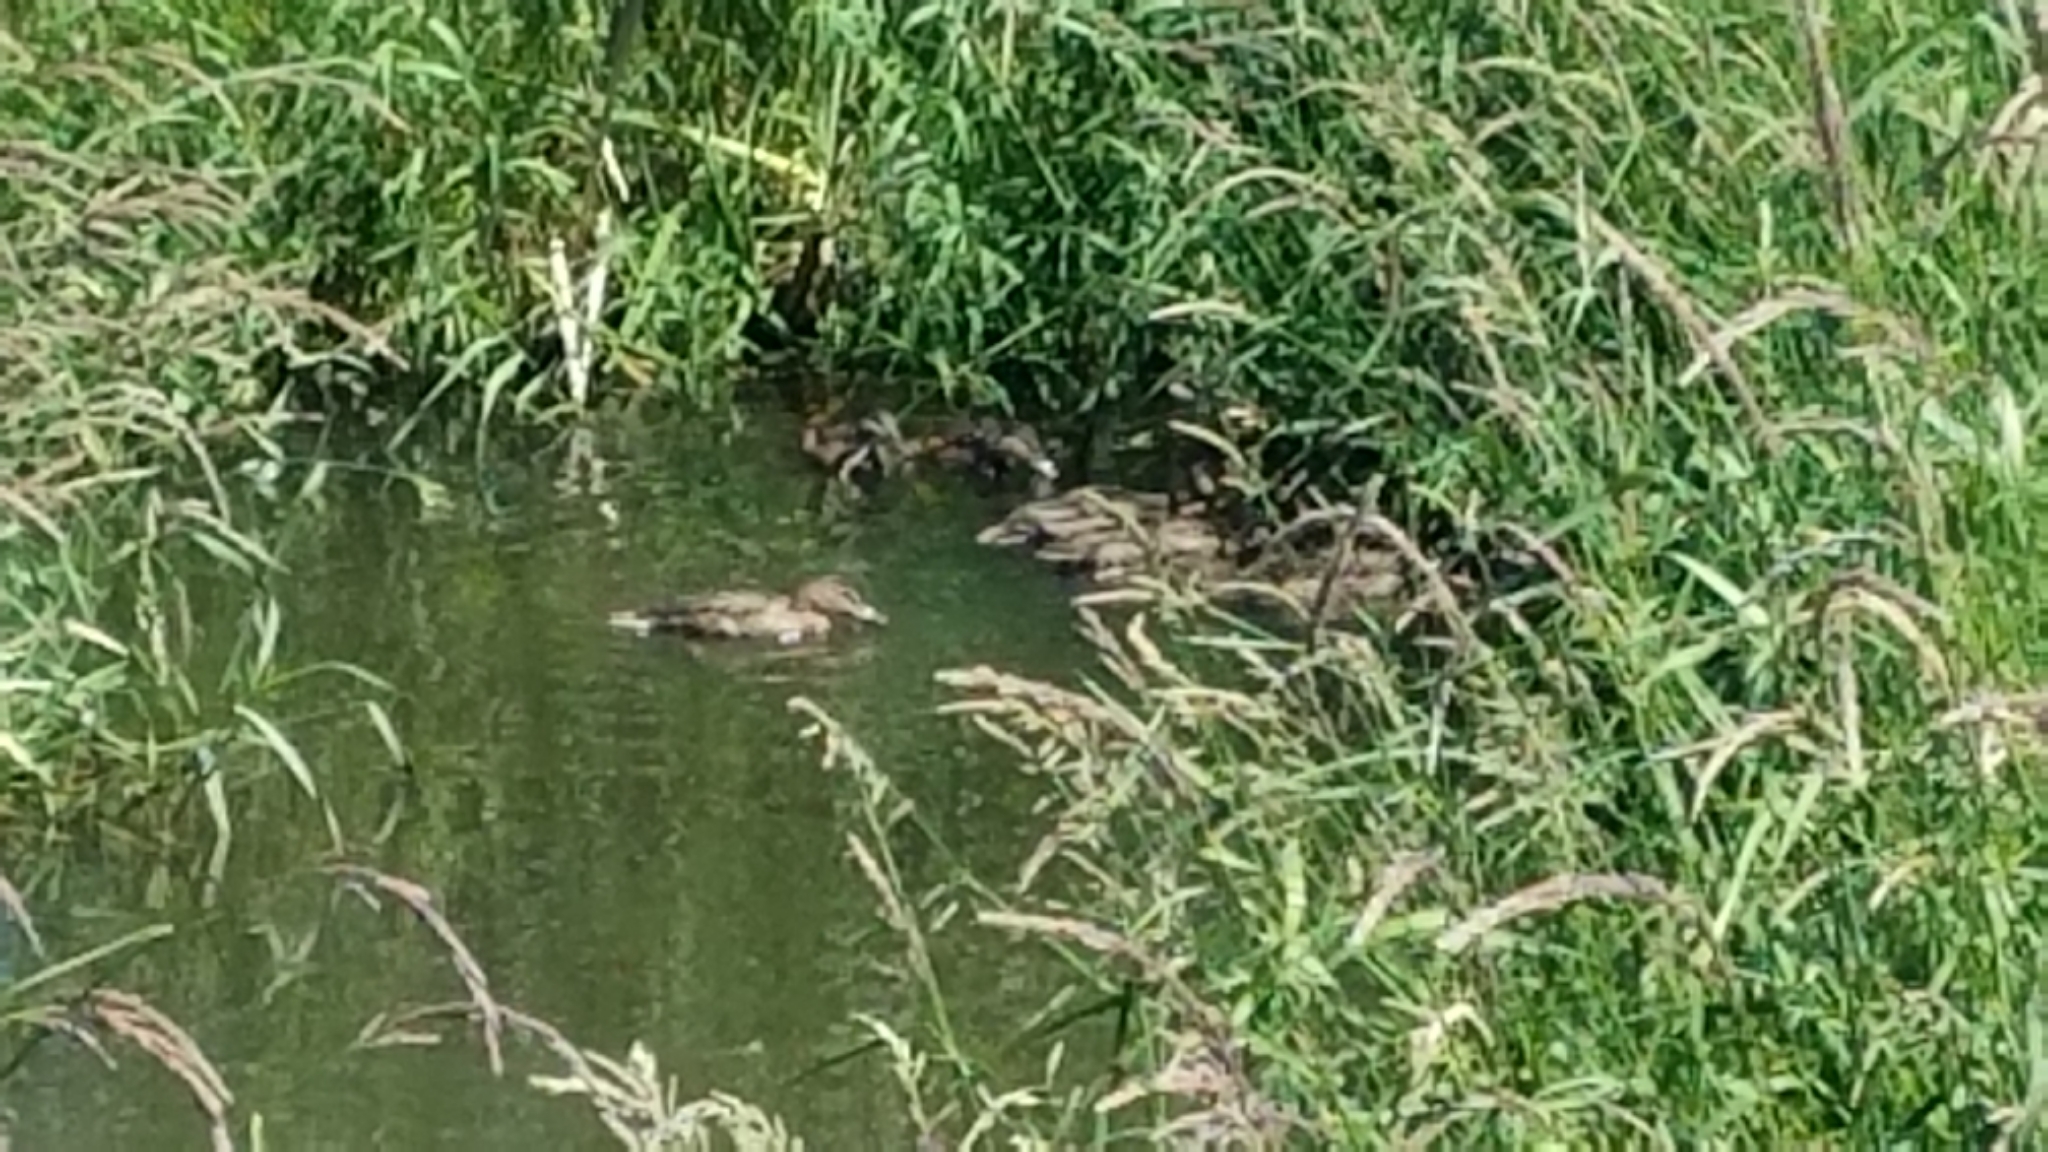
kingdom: Animalia
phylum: Chordata
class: Aves
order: Anseriformes
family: Anatidae
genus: Anas
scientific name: Anas platyrhynchos
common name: Mallard
